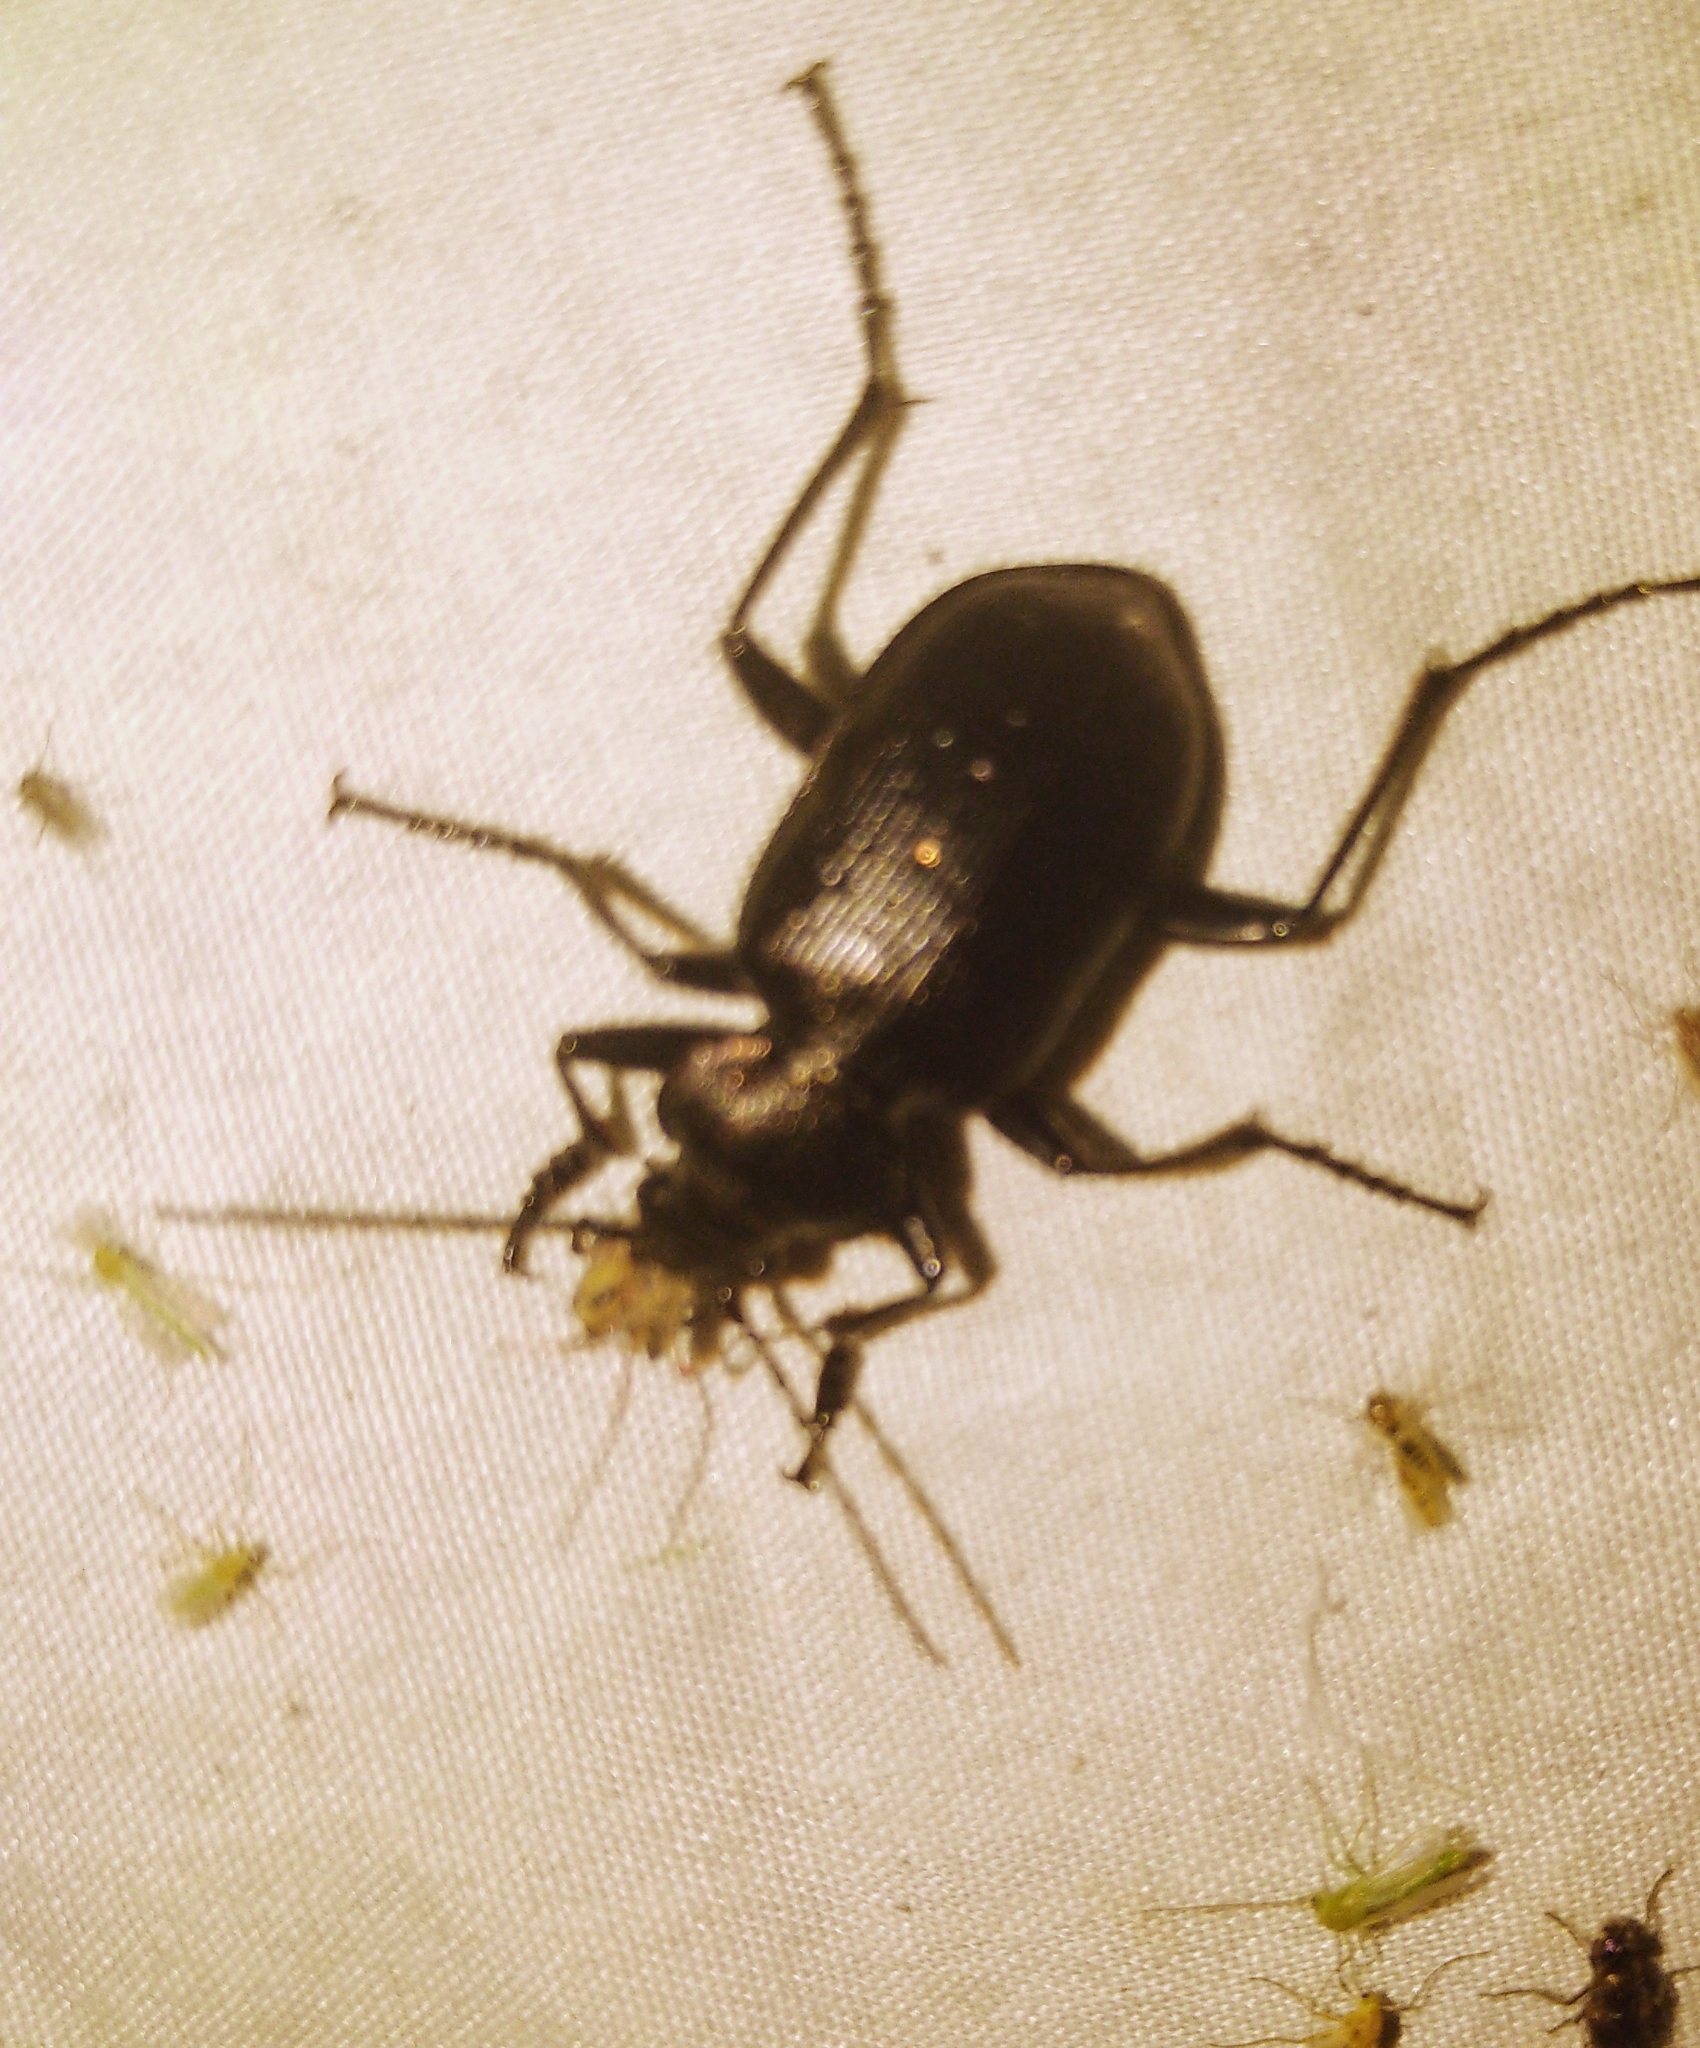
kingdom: Animalia
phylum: Arthropoda
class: Insecta
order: Coleoptera
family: Carabidae
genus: Calosoma
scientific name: Calosoma frigidum
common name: Cold-country caterpillar hunter
